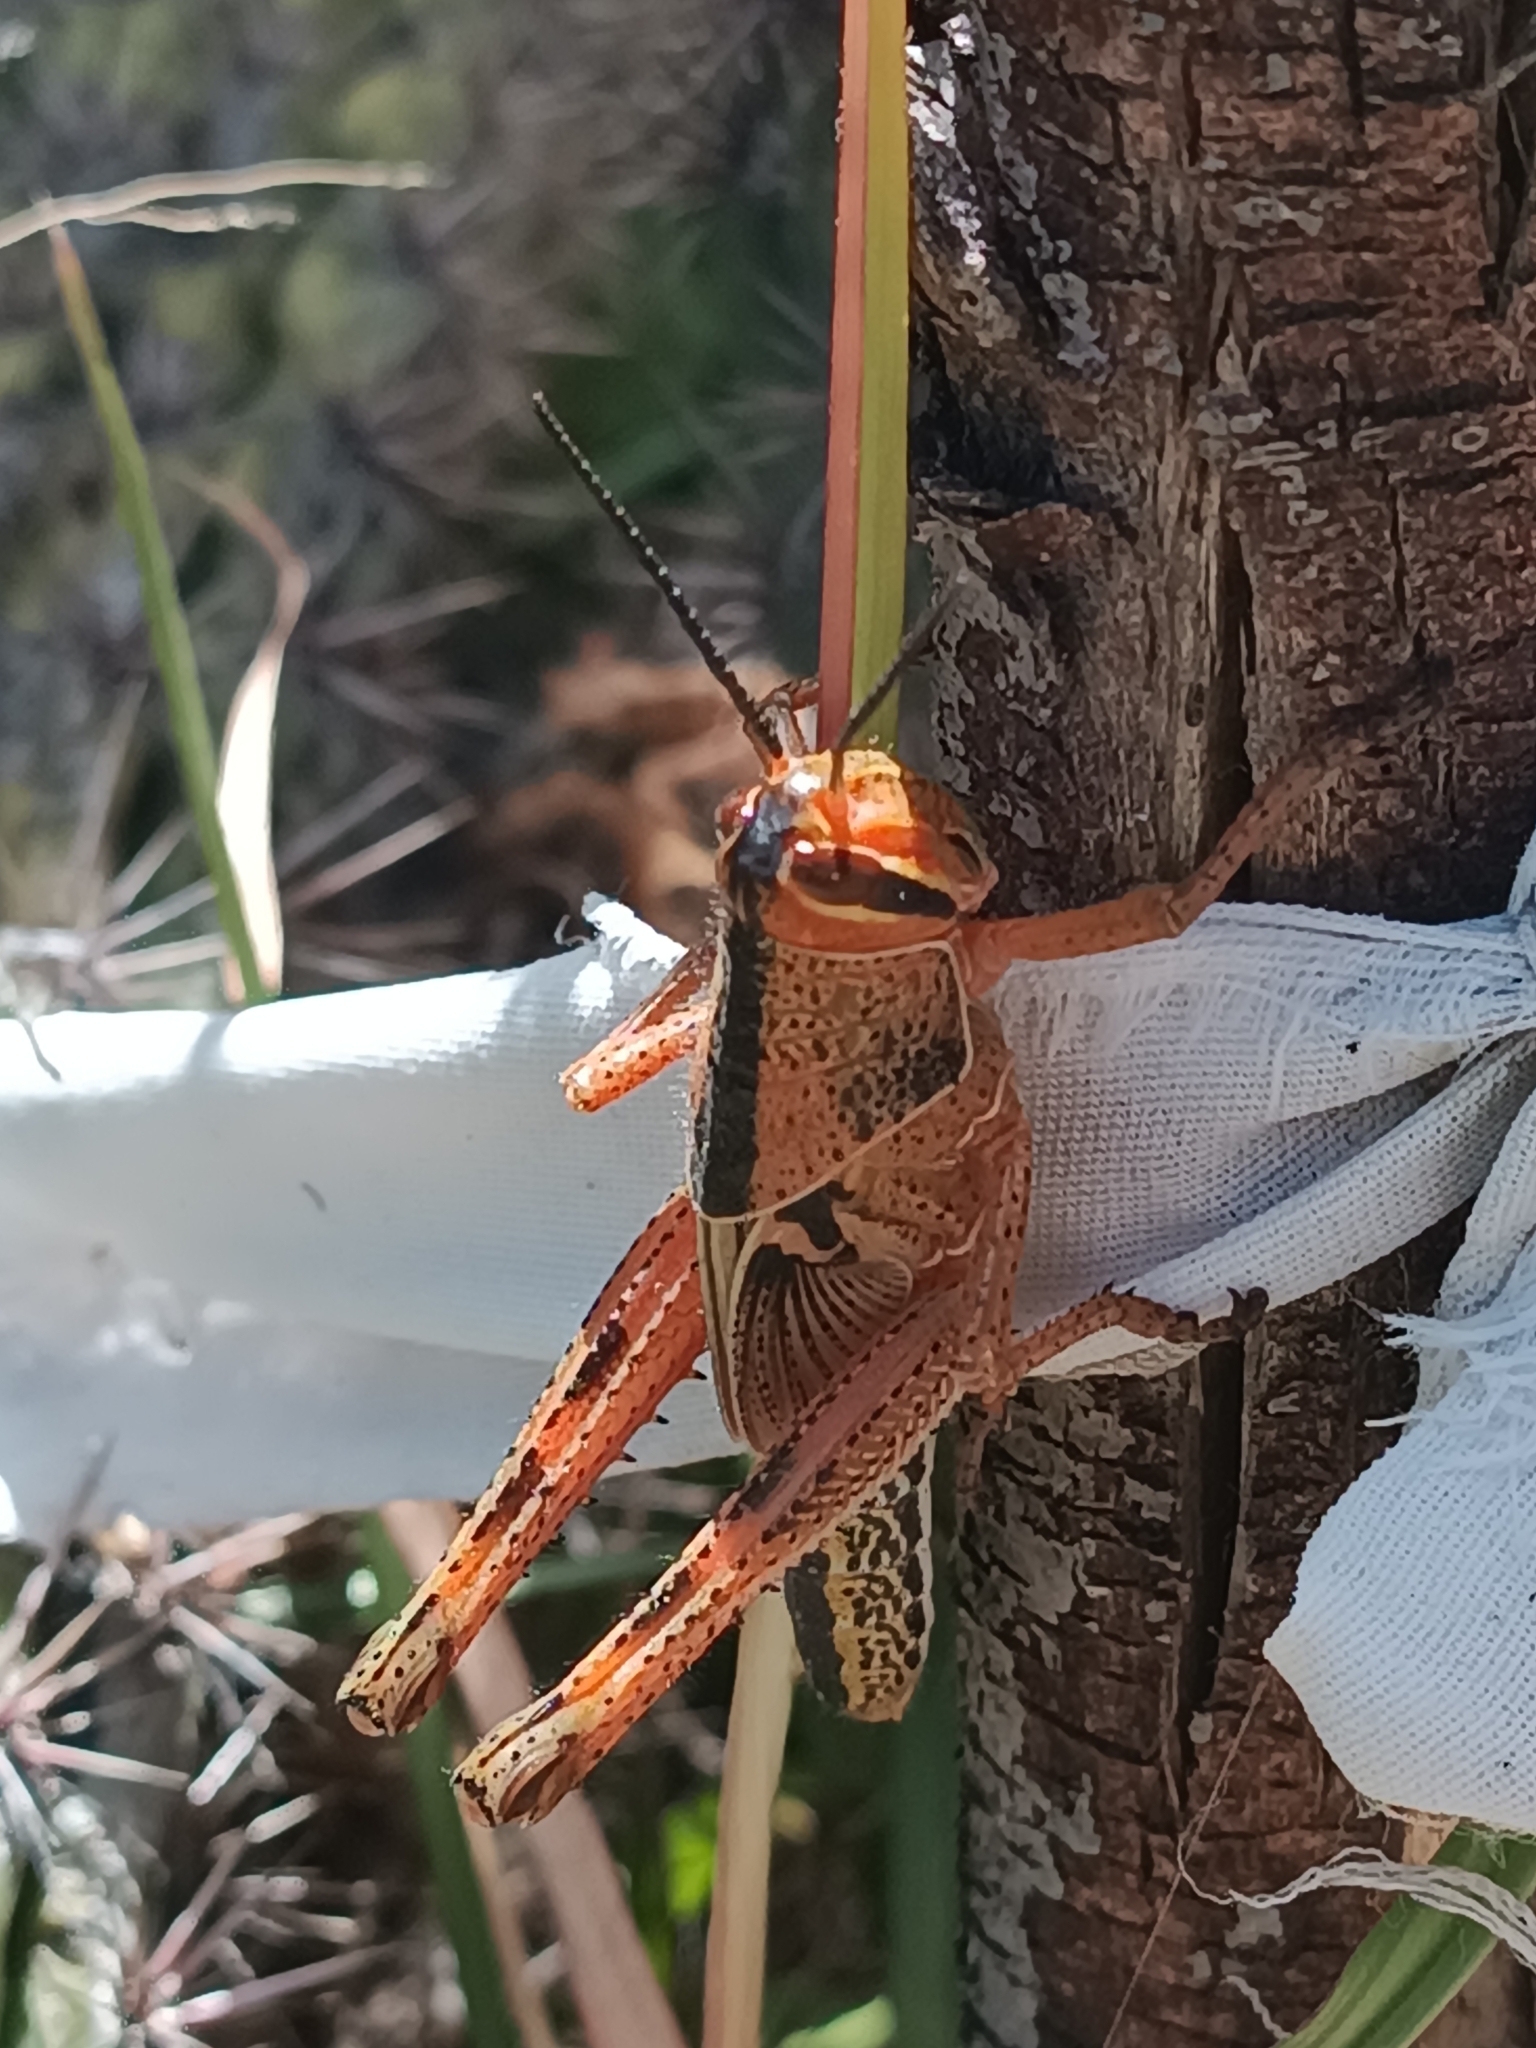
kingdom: Animalia
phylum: Arthropoda
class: Insecta
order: Orthoptera
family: Acrididae
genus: Schistocerca
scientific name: Schistocerca piceifrons
